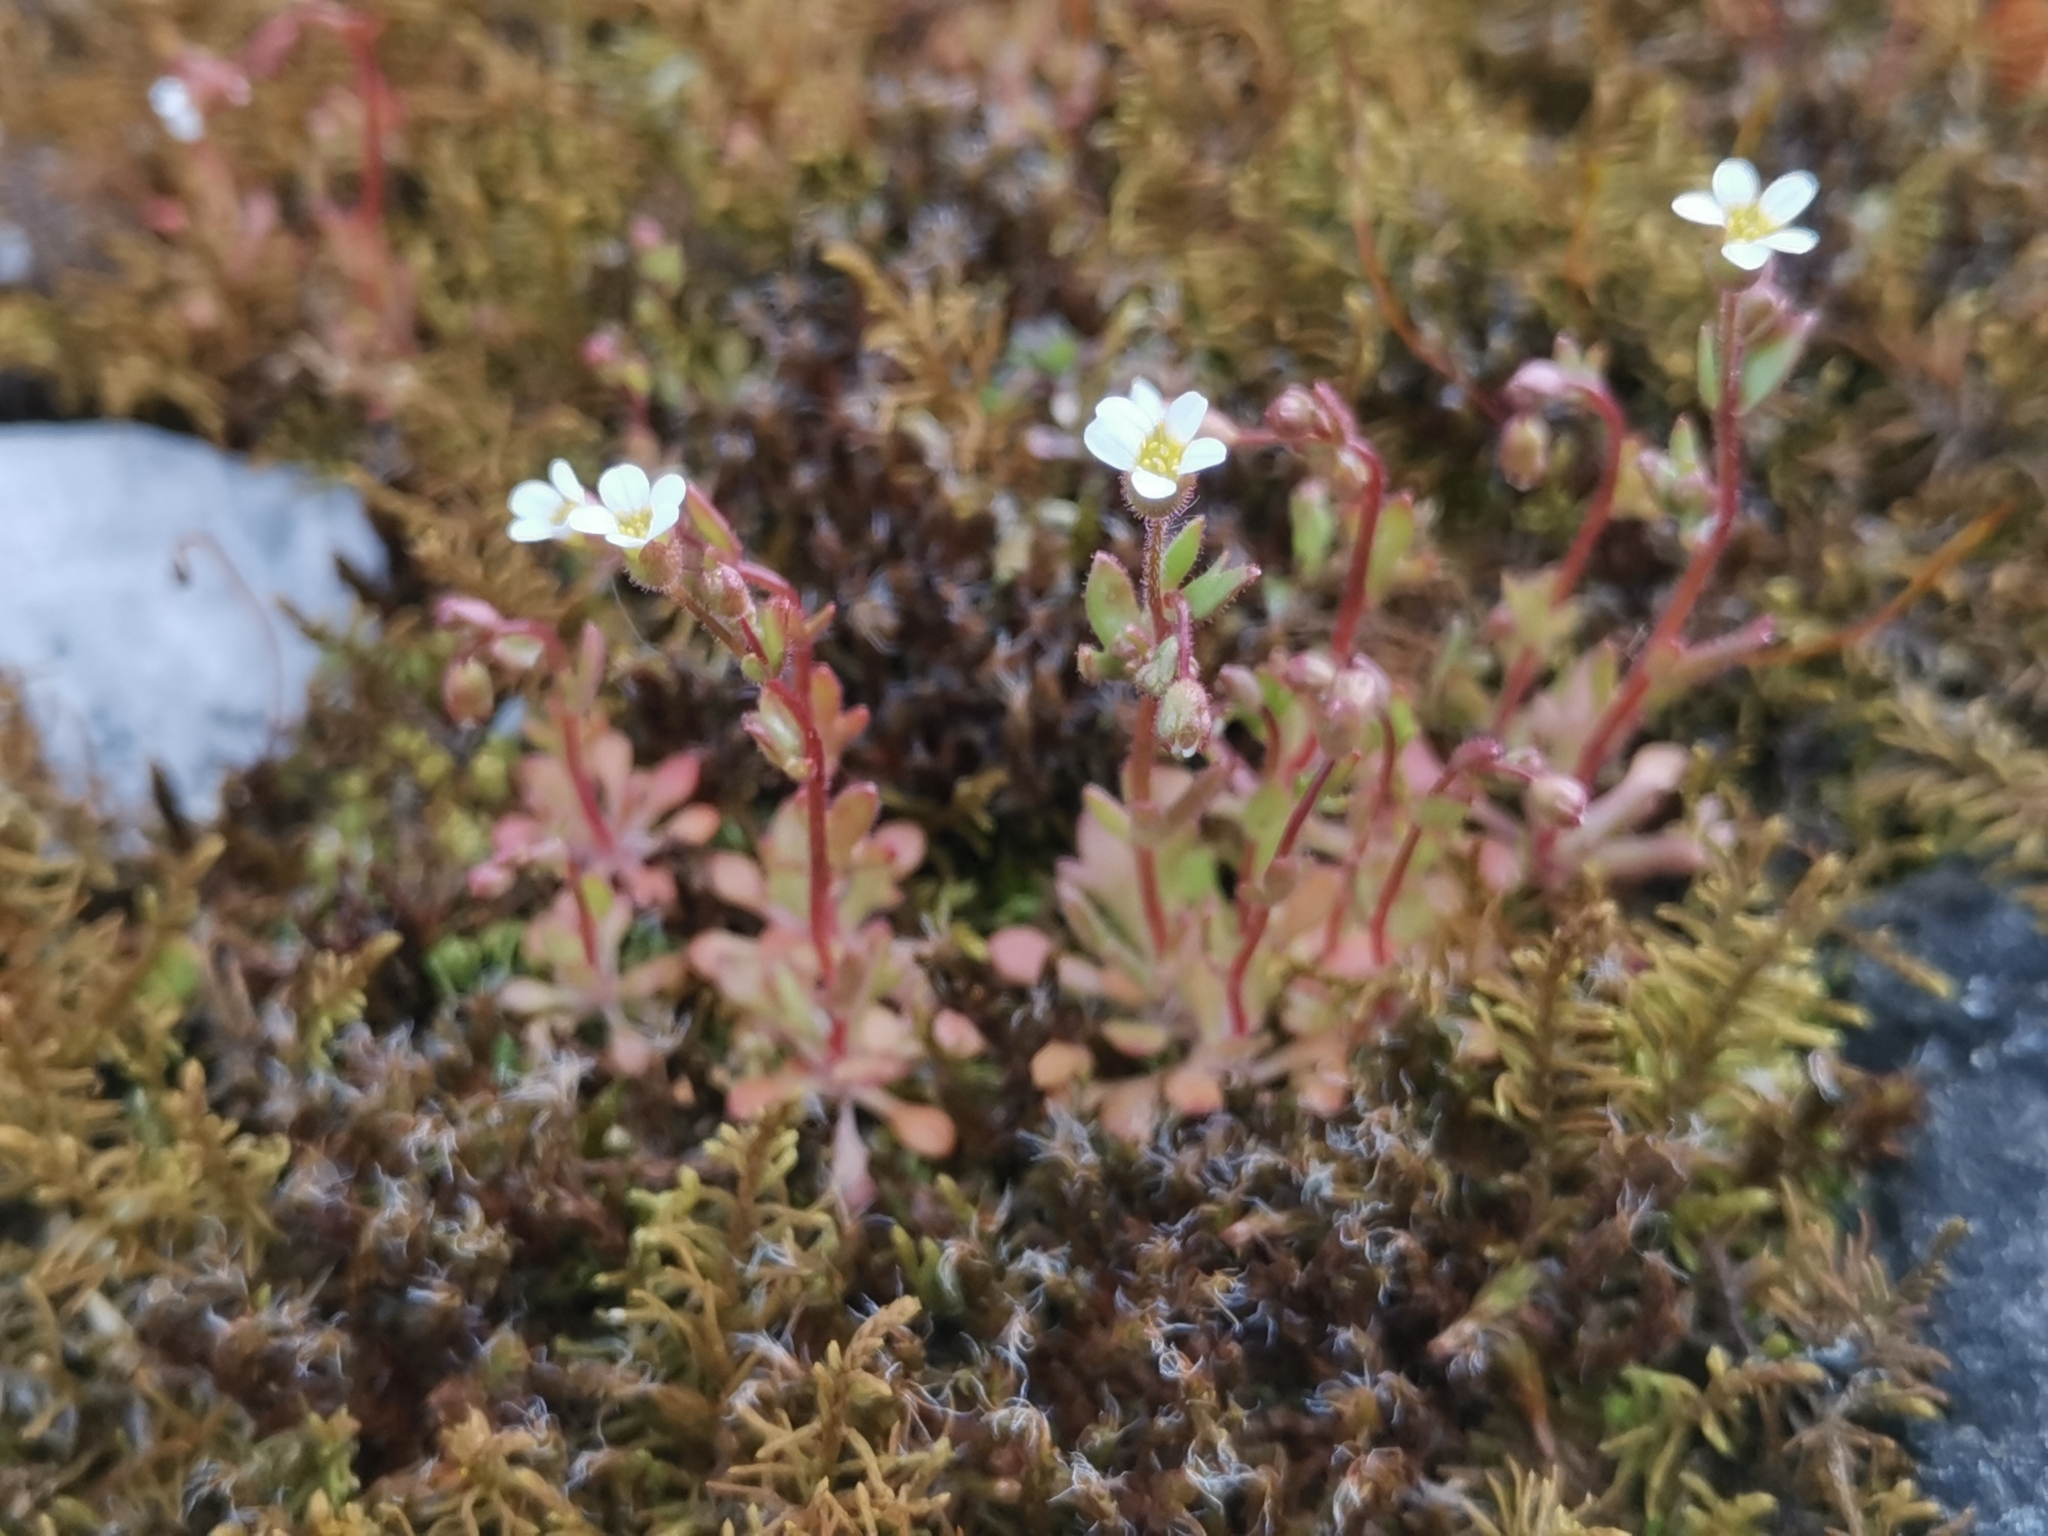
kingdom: Plantae
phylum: Tracheophyta
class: Magnoliopsida
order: Saxifragales
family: Saxifragaceae
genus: Saxifraga
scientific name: Saxifraga tridactylites
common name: Rue-leaved saxifrage
